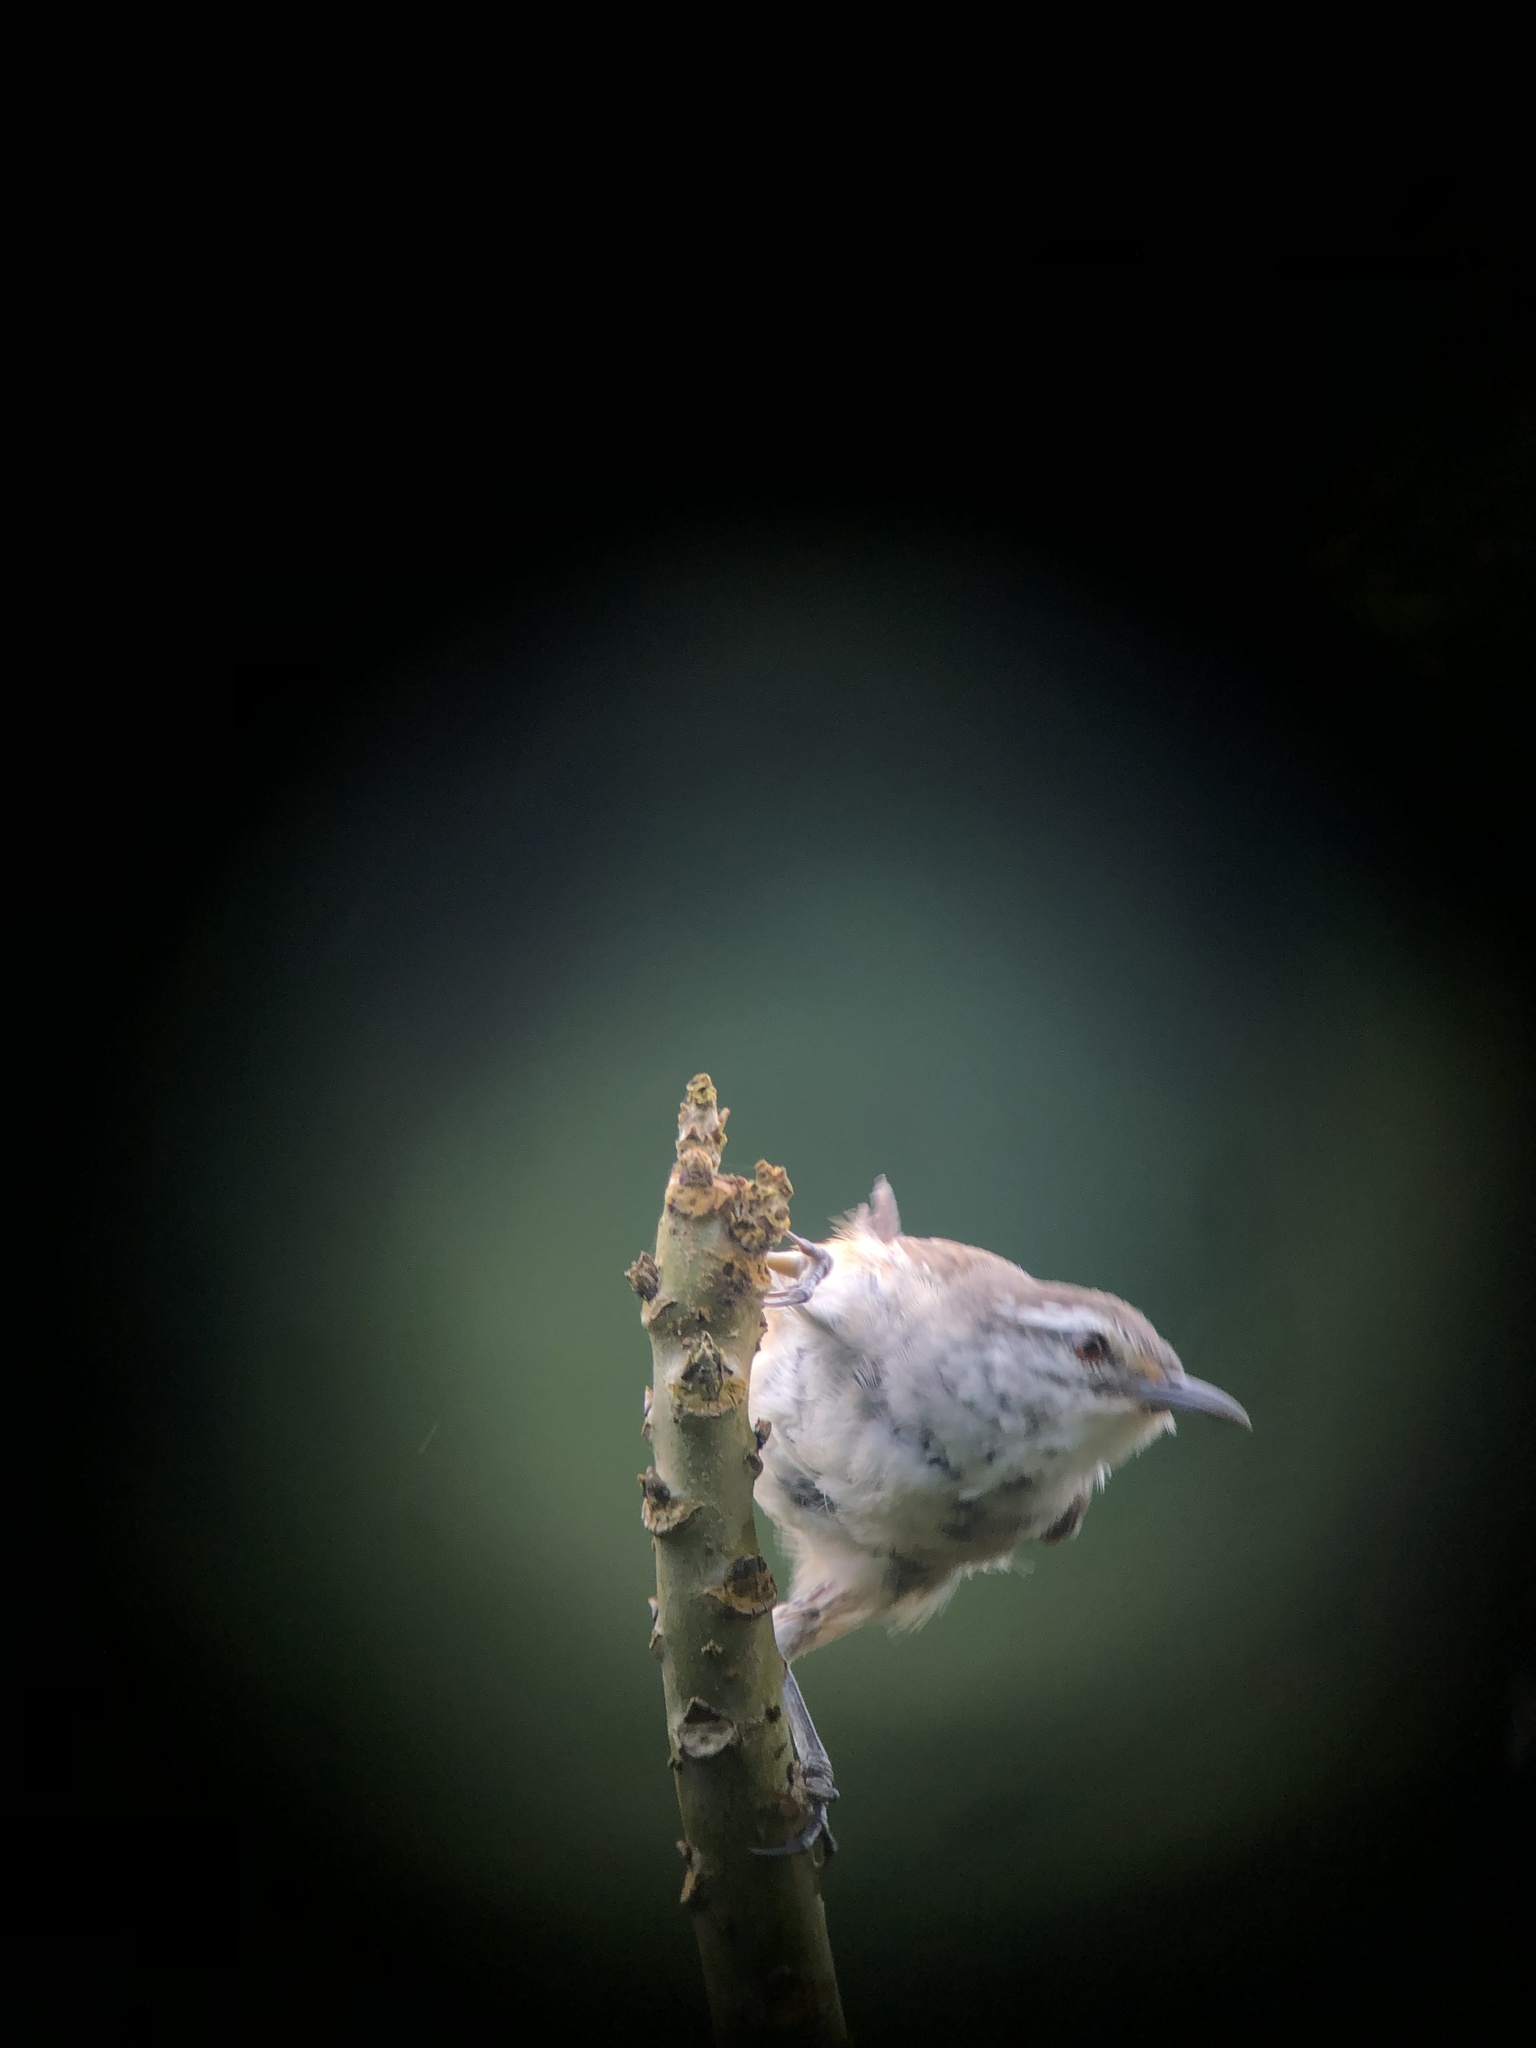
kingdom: Animalia
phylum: Chordata
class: Aves
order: Passeriformes
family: Troglodytidae
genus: Cantorchilus
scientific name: Cantorchilus modestus
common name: Cabanis's wren
